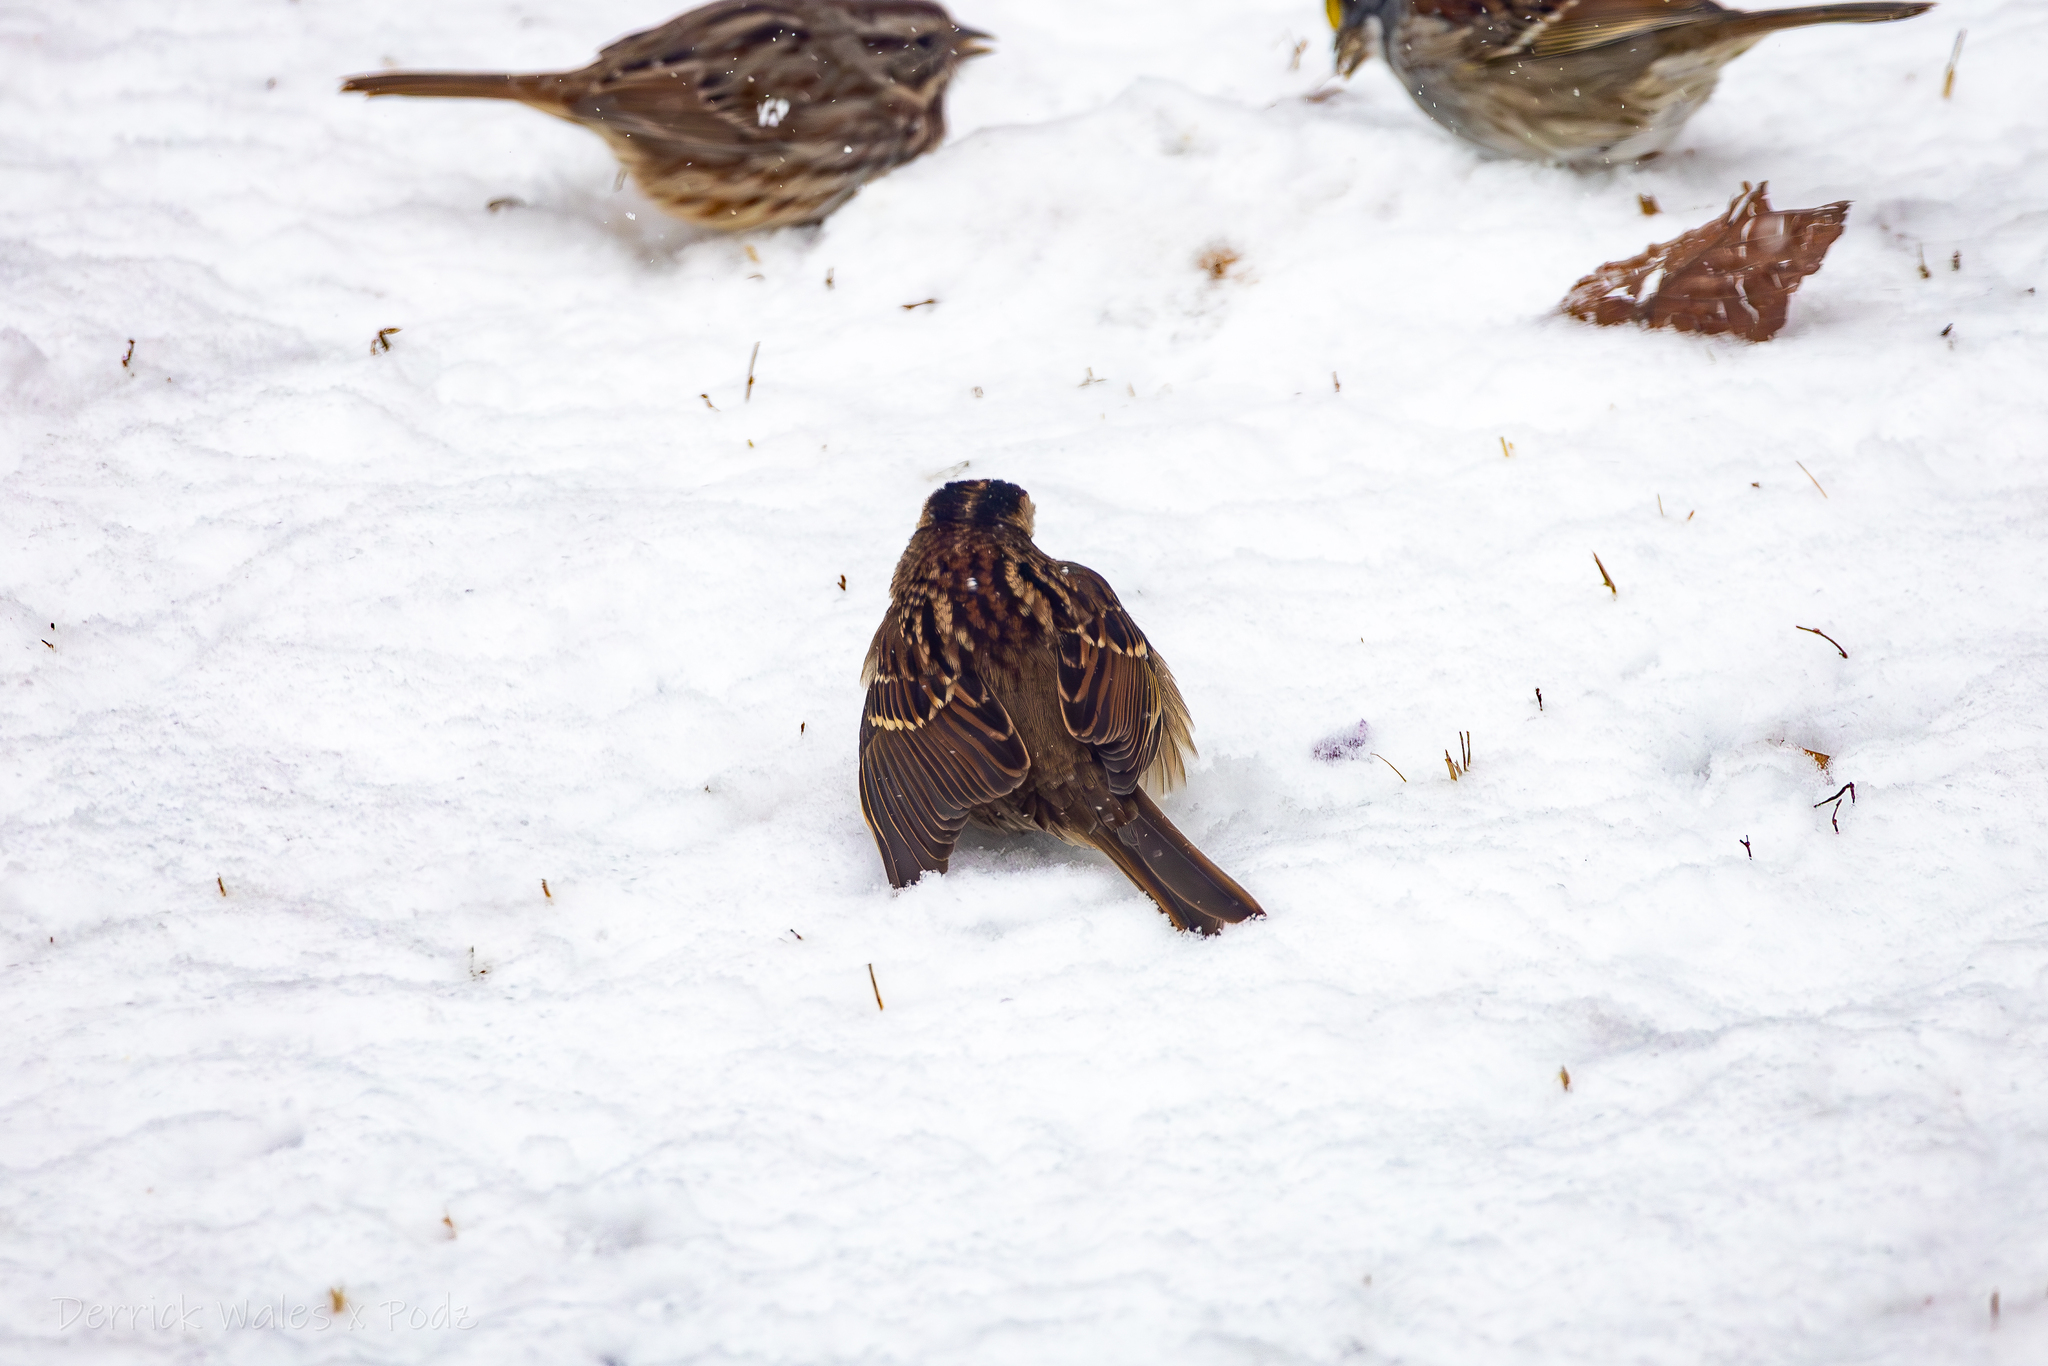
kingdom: Animalia
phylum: Chordata
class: Aves
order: Passeriformes
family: Passerellidae
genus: Zonotrichia
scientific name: Zonotrichia albicollis
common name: White-throated sparrow
